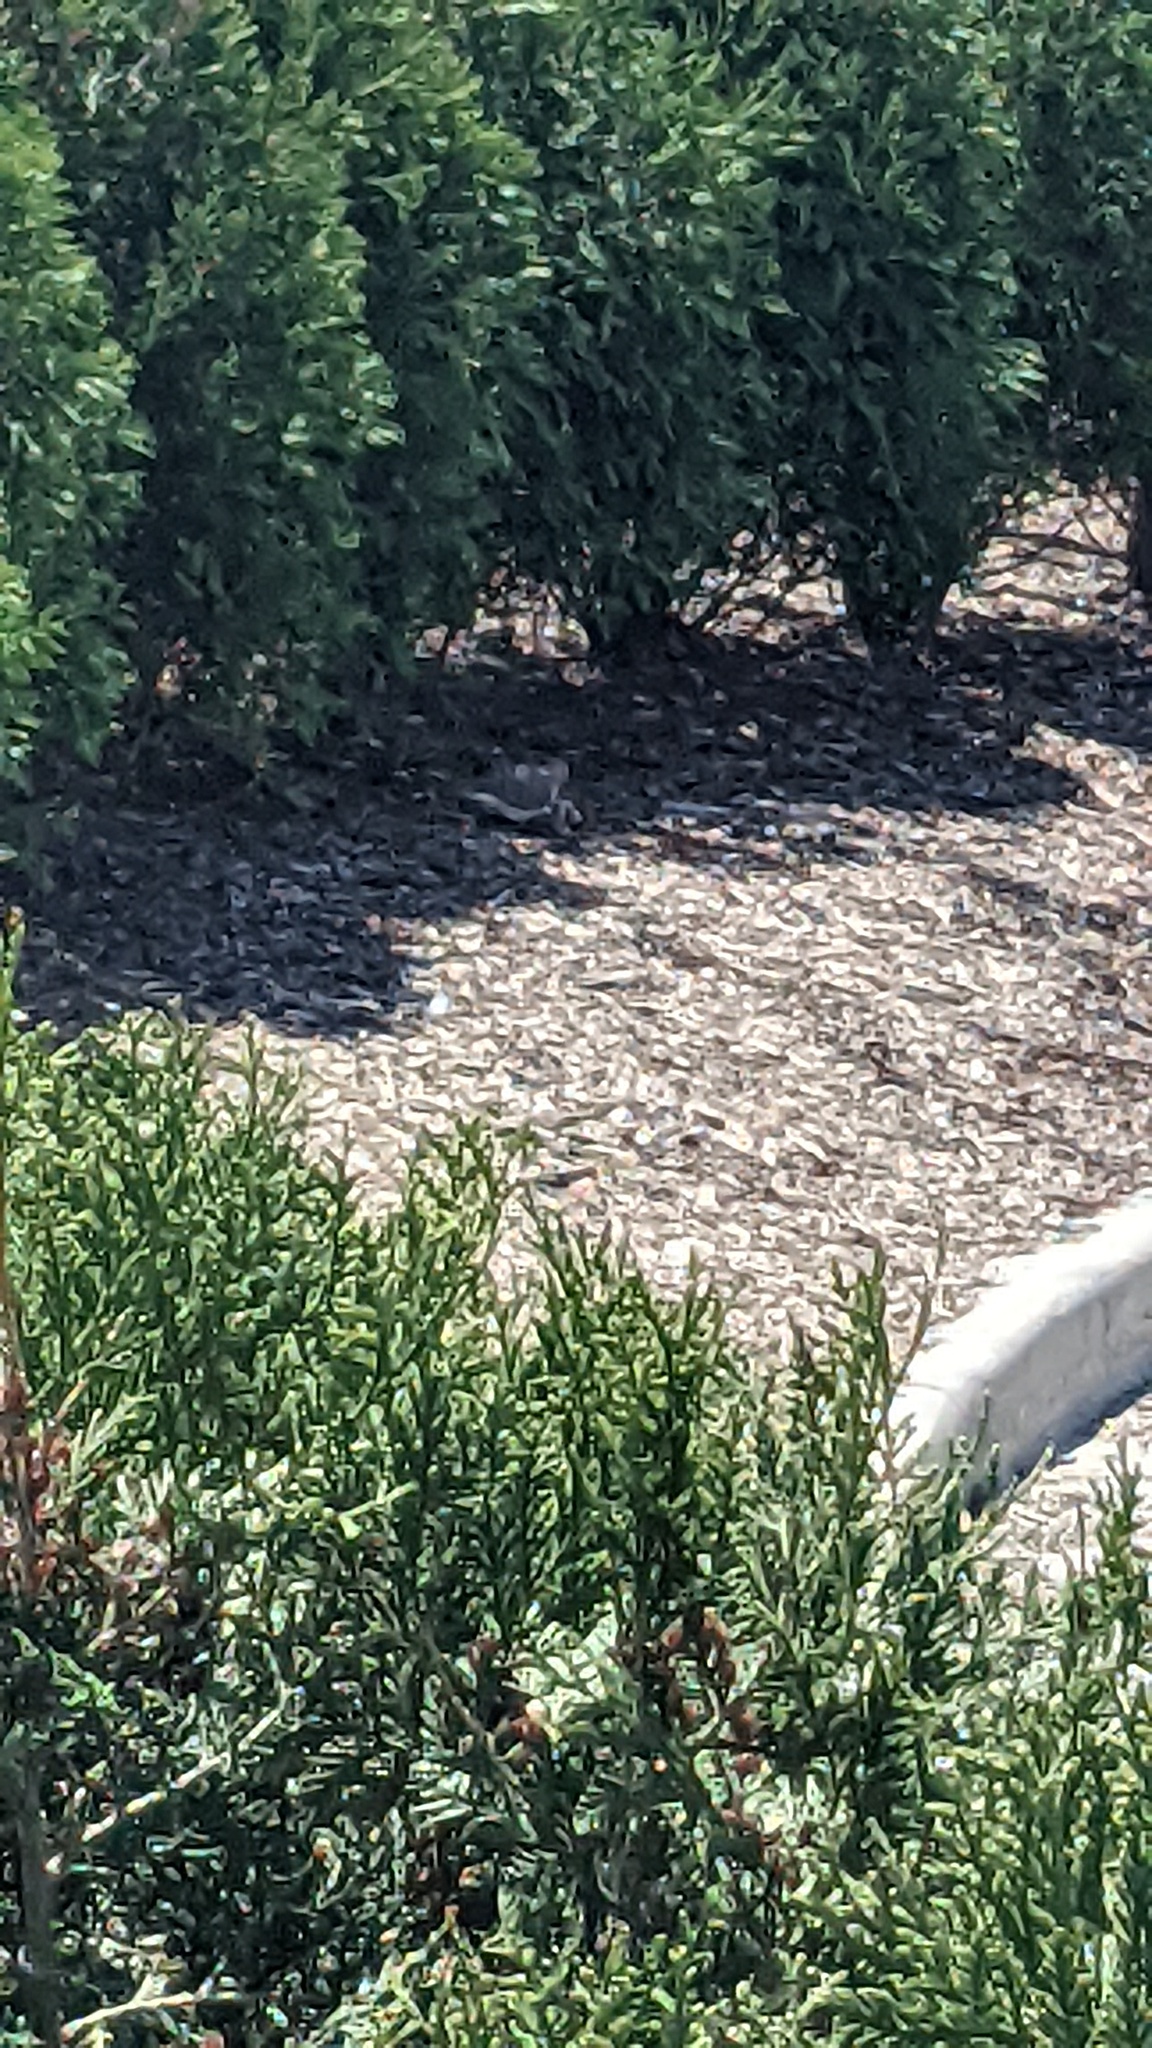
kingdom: Animalia
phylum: Chordata
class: Aves
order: Columbiformes
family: Columbidae
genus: Zenaida
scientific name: Zenaida macroura
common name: Mourning dove
